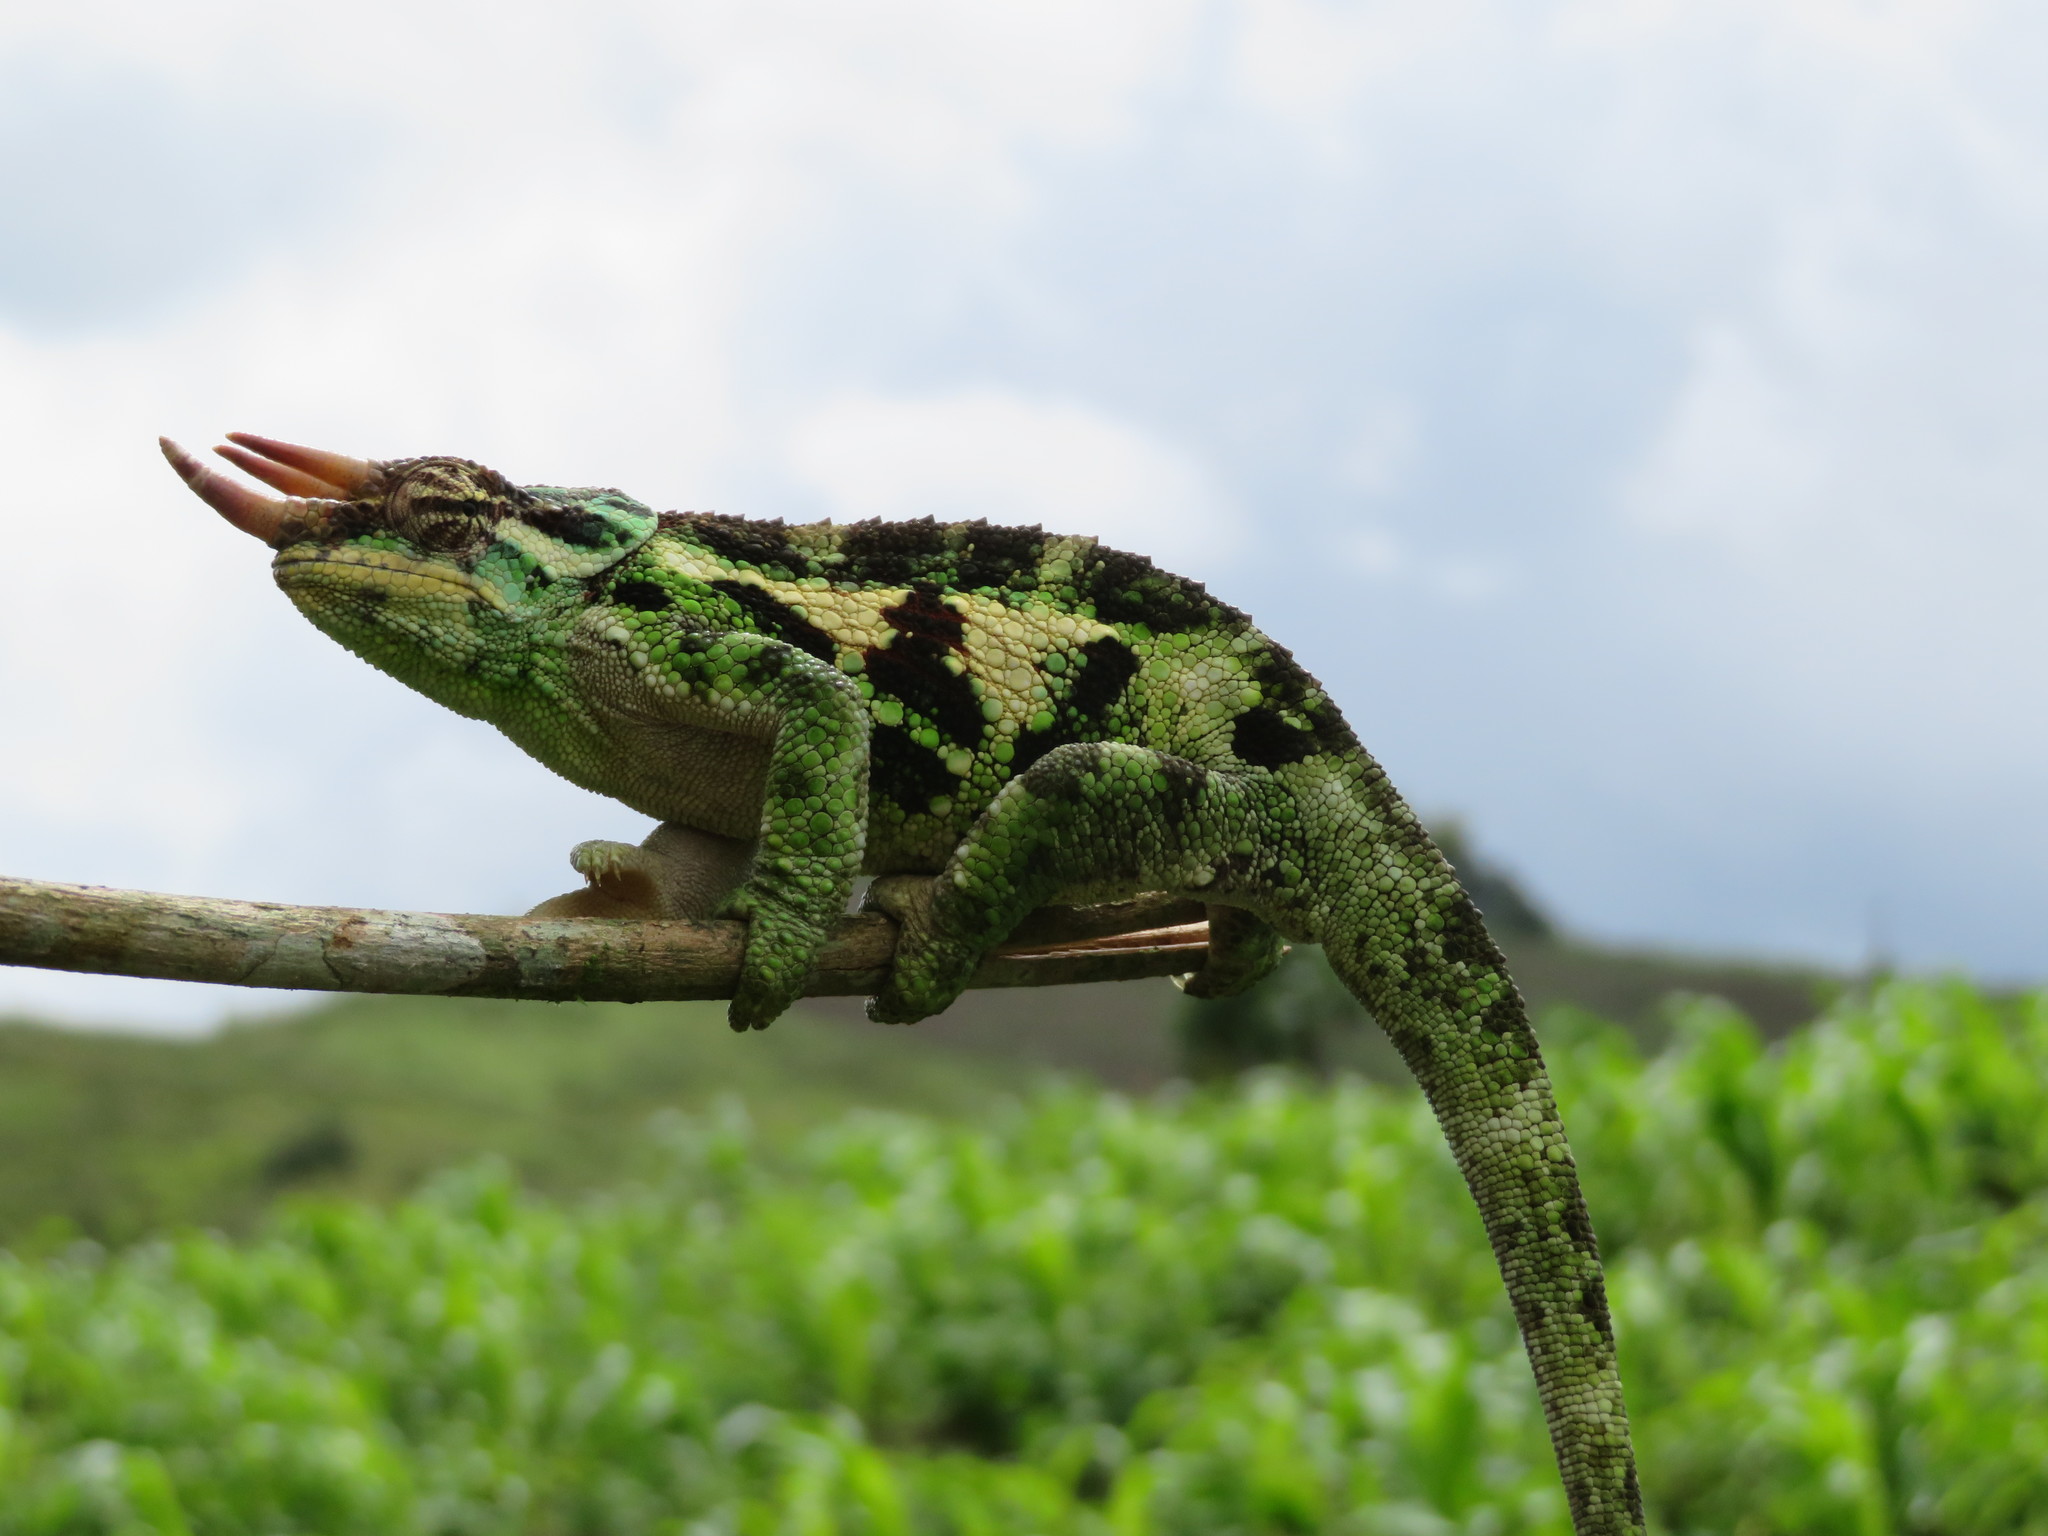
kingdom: Animalia
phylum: Chordata
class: Squamata
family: Chamaeleonidae
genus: Trioceros
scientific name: Trioceros werneri
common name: Wemer's chameleon
